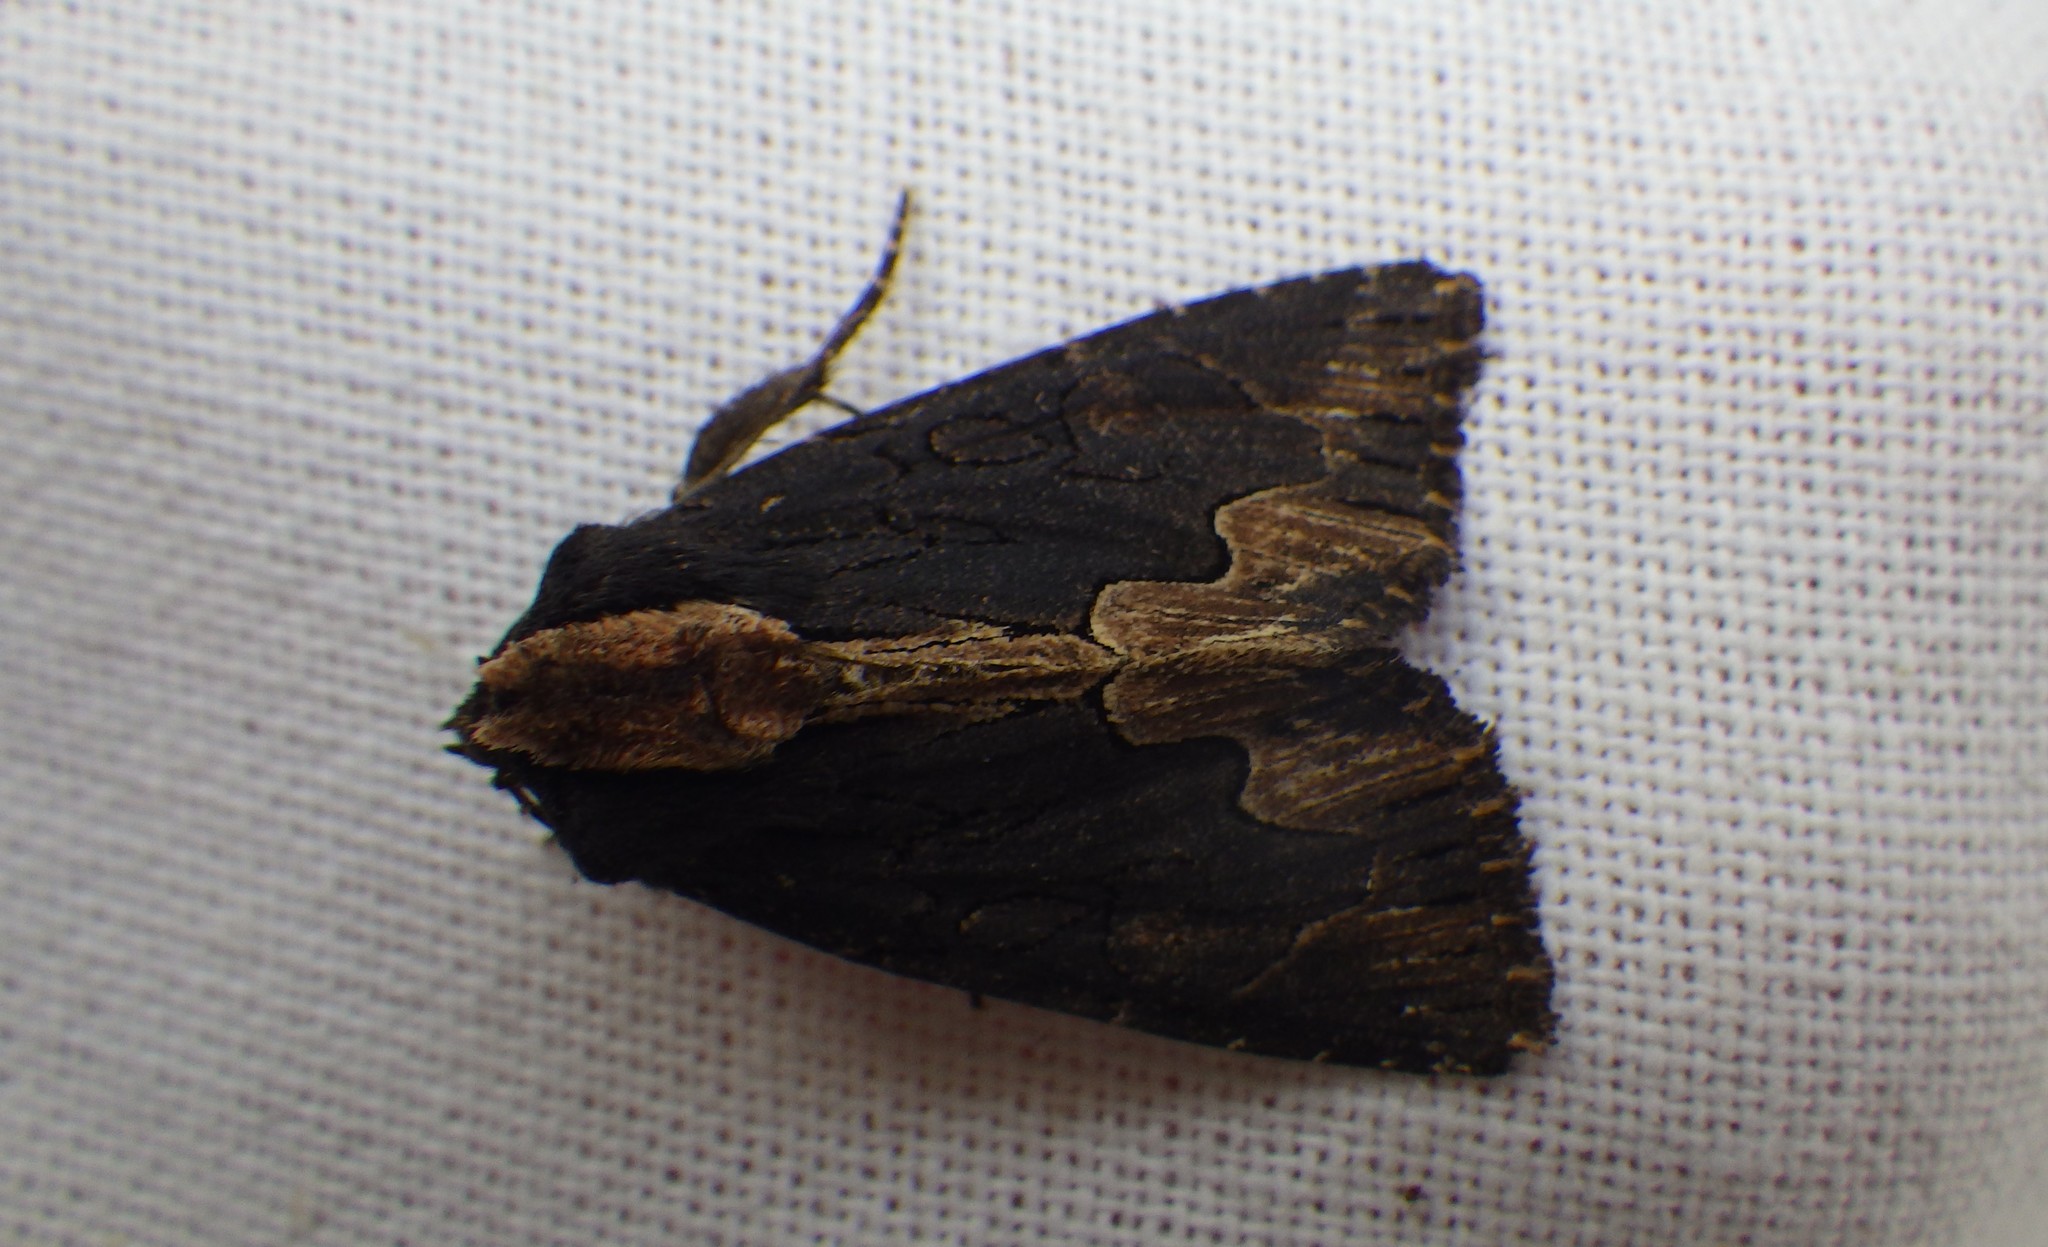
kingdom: Animalia
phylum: Arthropoda
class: Insecta
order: Lepidoptera
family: Noctuidae
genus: Dypterygia
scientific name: Dypterygia scabriuscula
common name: Bird's wing
